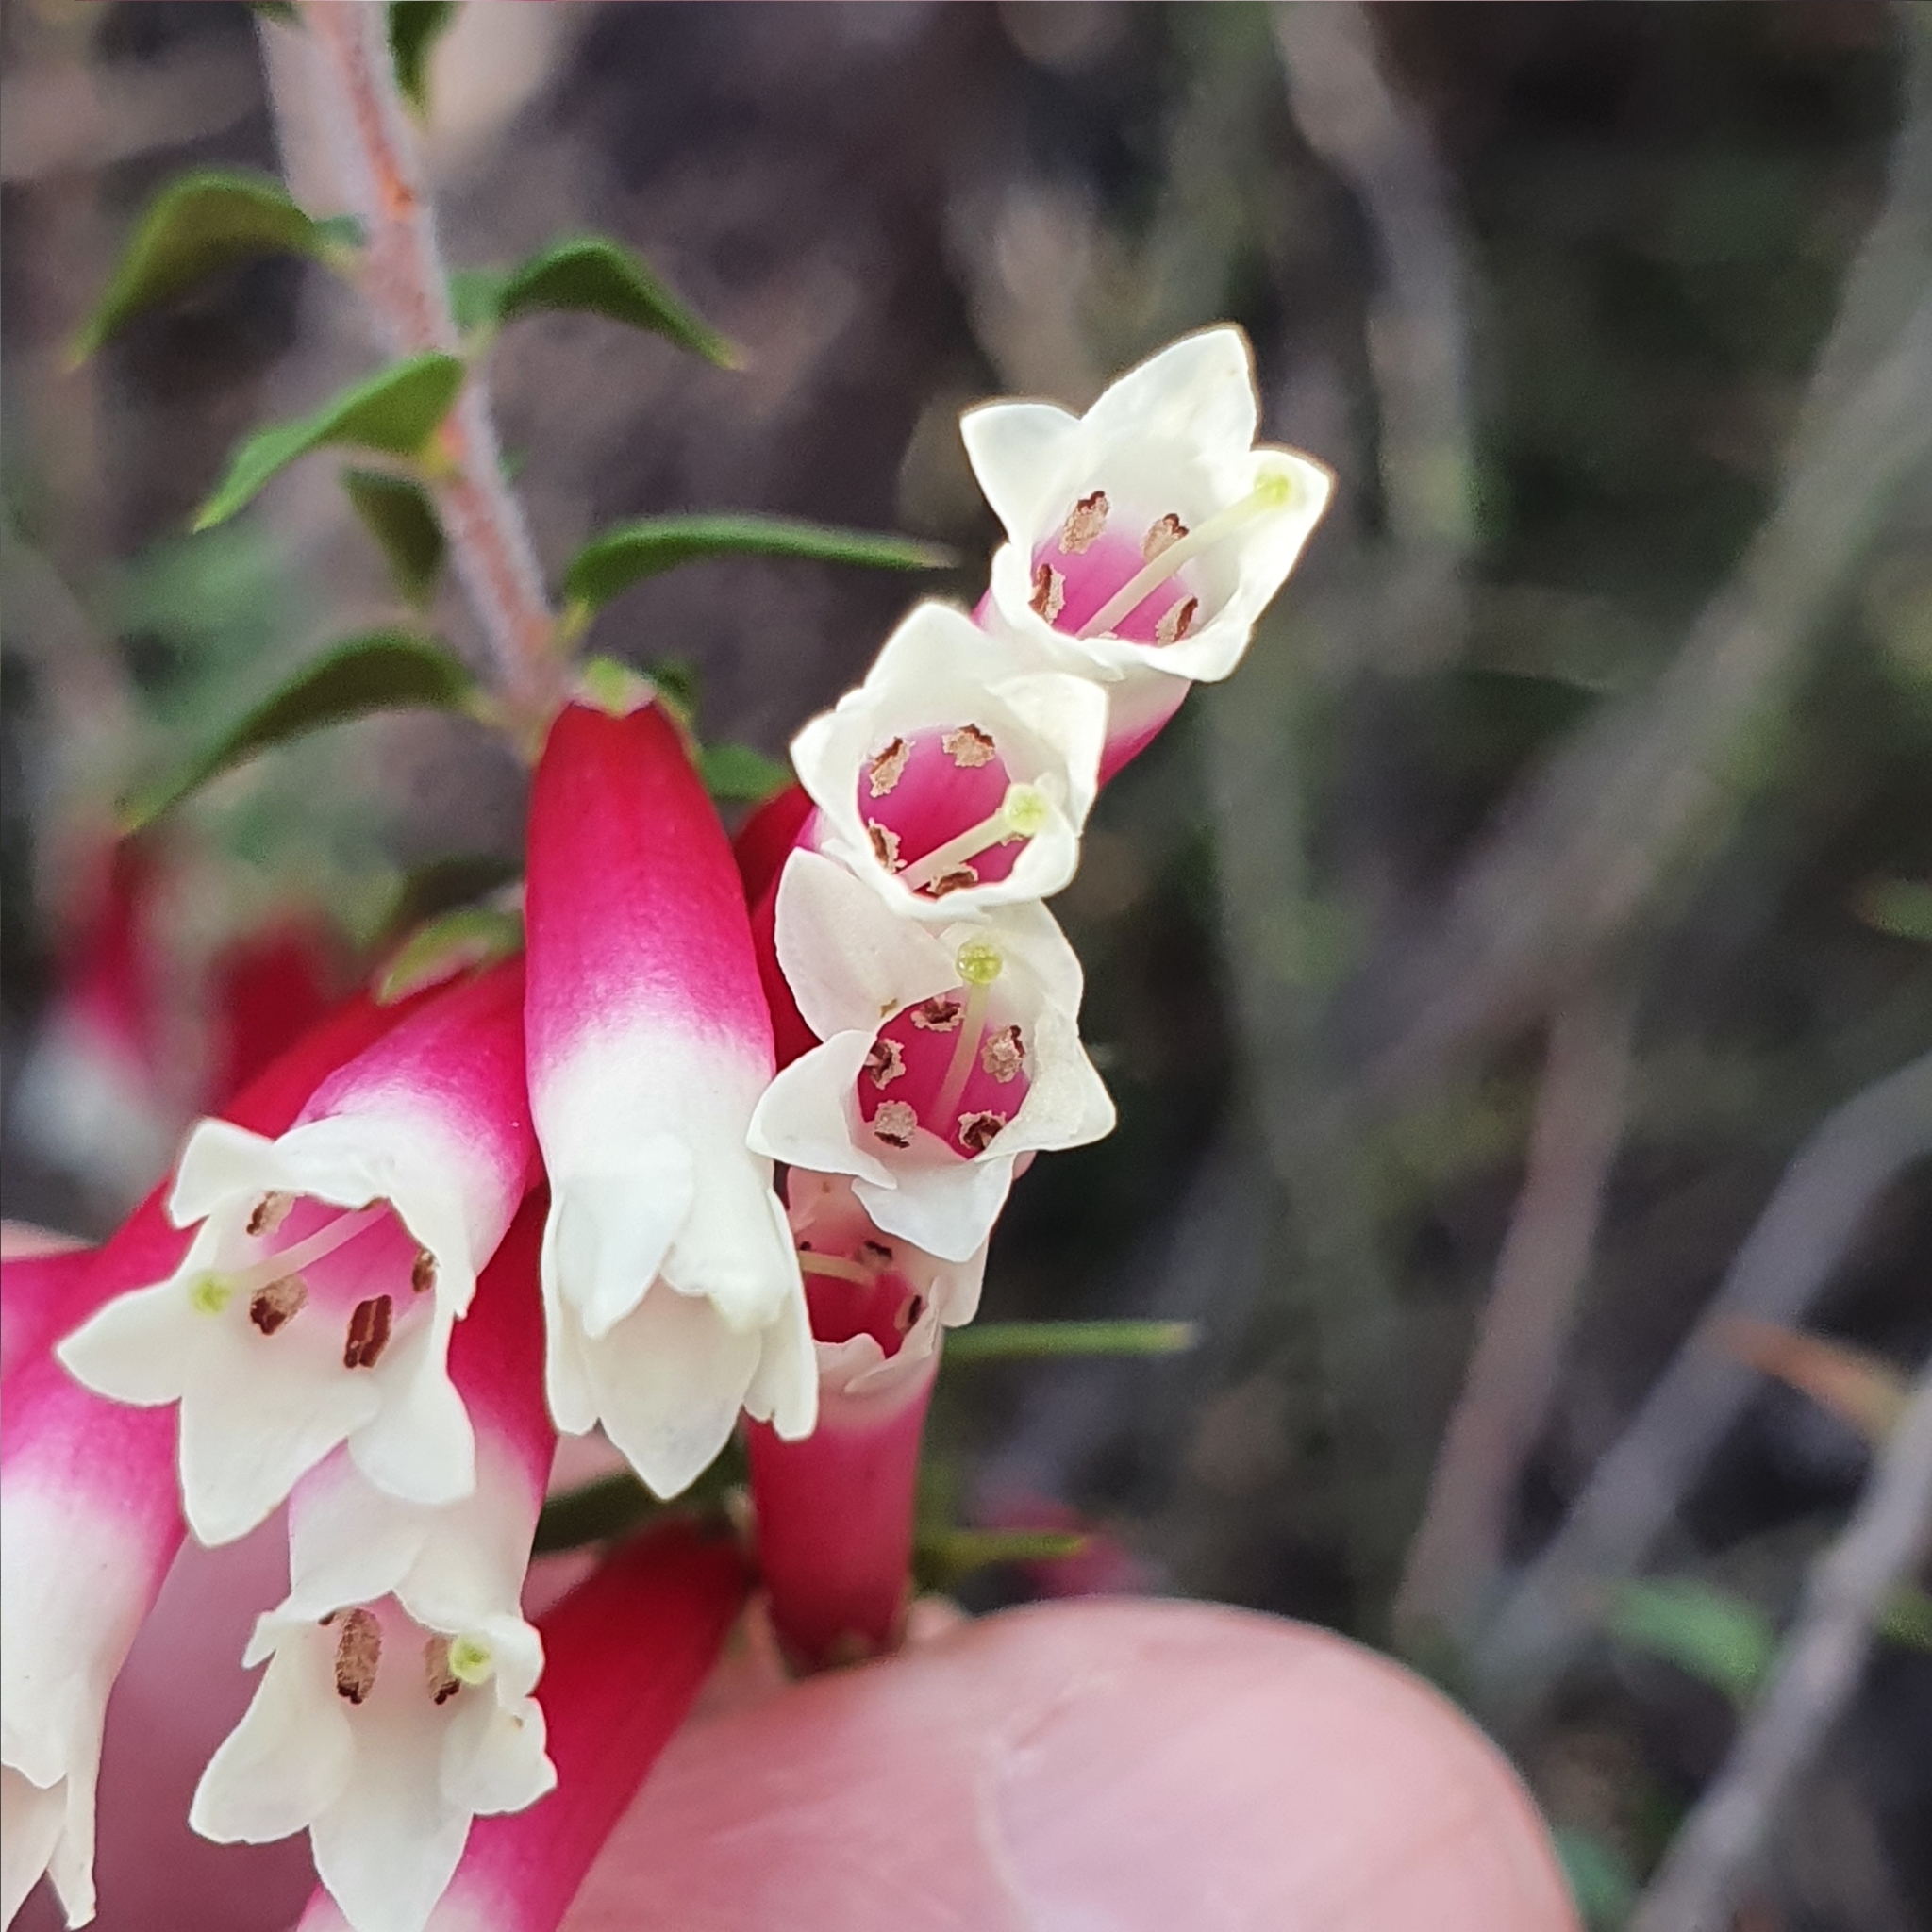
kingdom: Plantae
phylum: Tracheophyta
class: Magnoliopsida
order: Ericales
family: Ericaceae
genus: Epacris
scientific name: Epacris longiflora
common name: Fuchsia-heath
